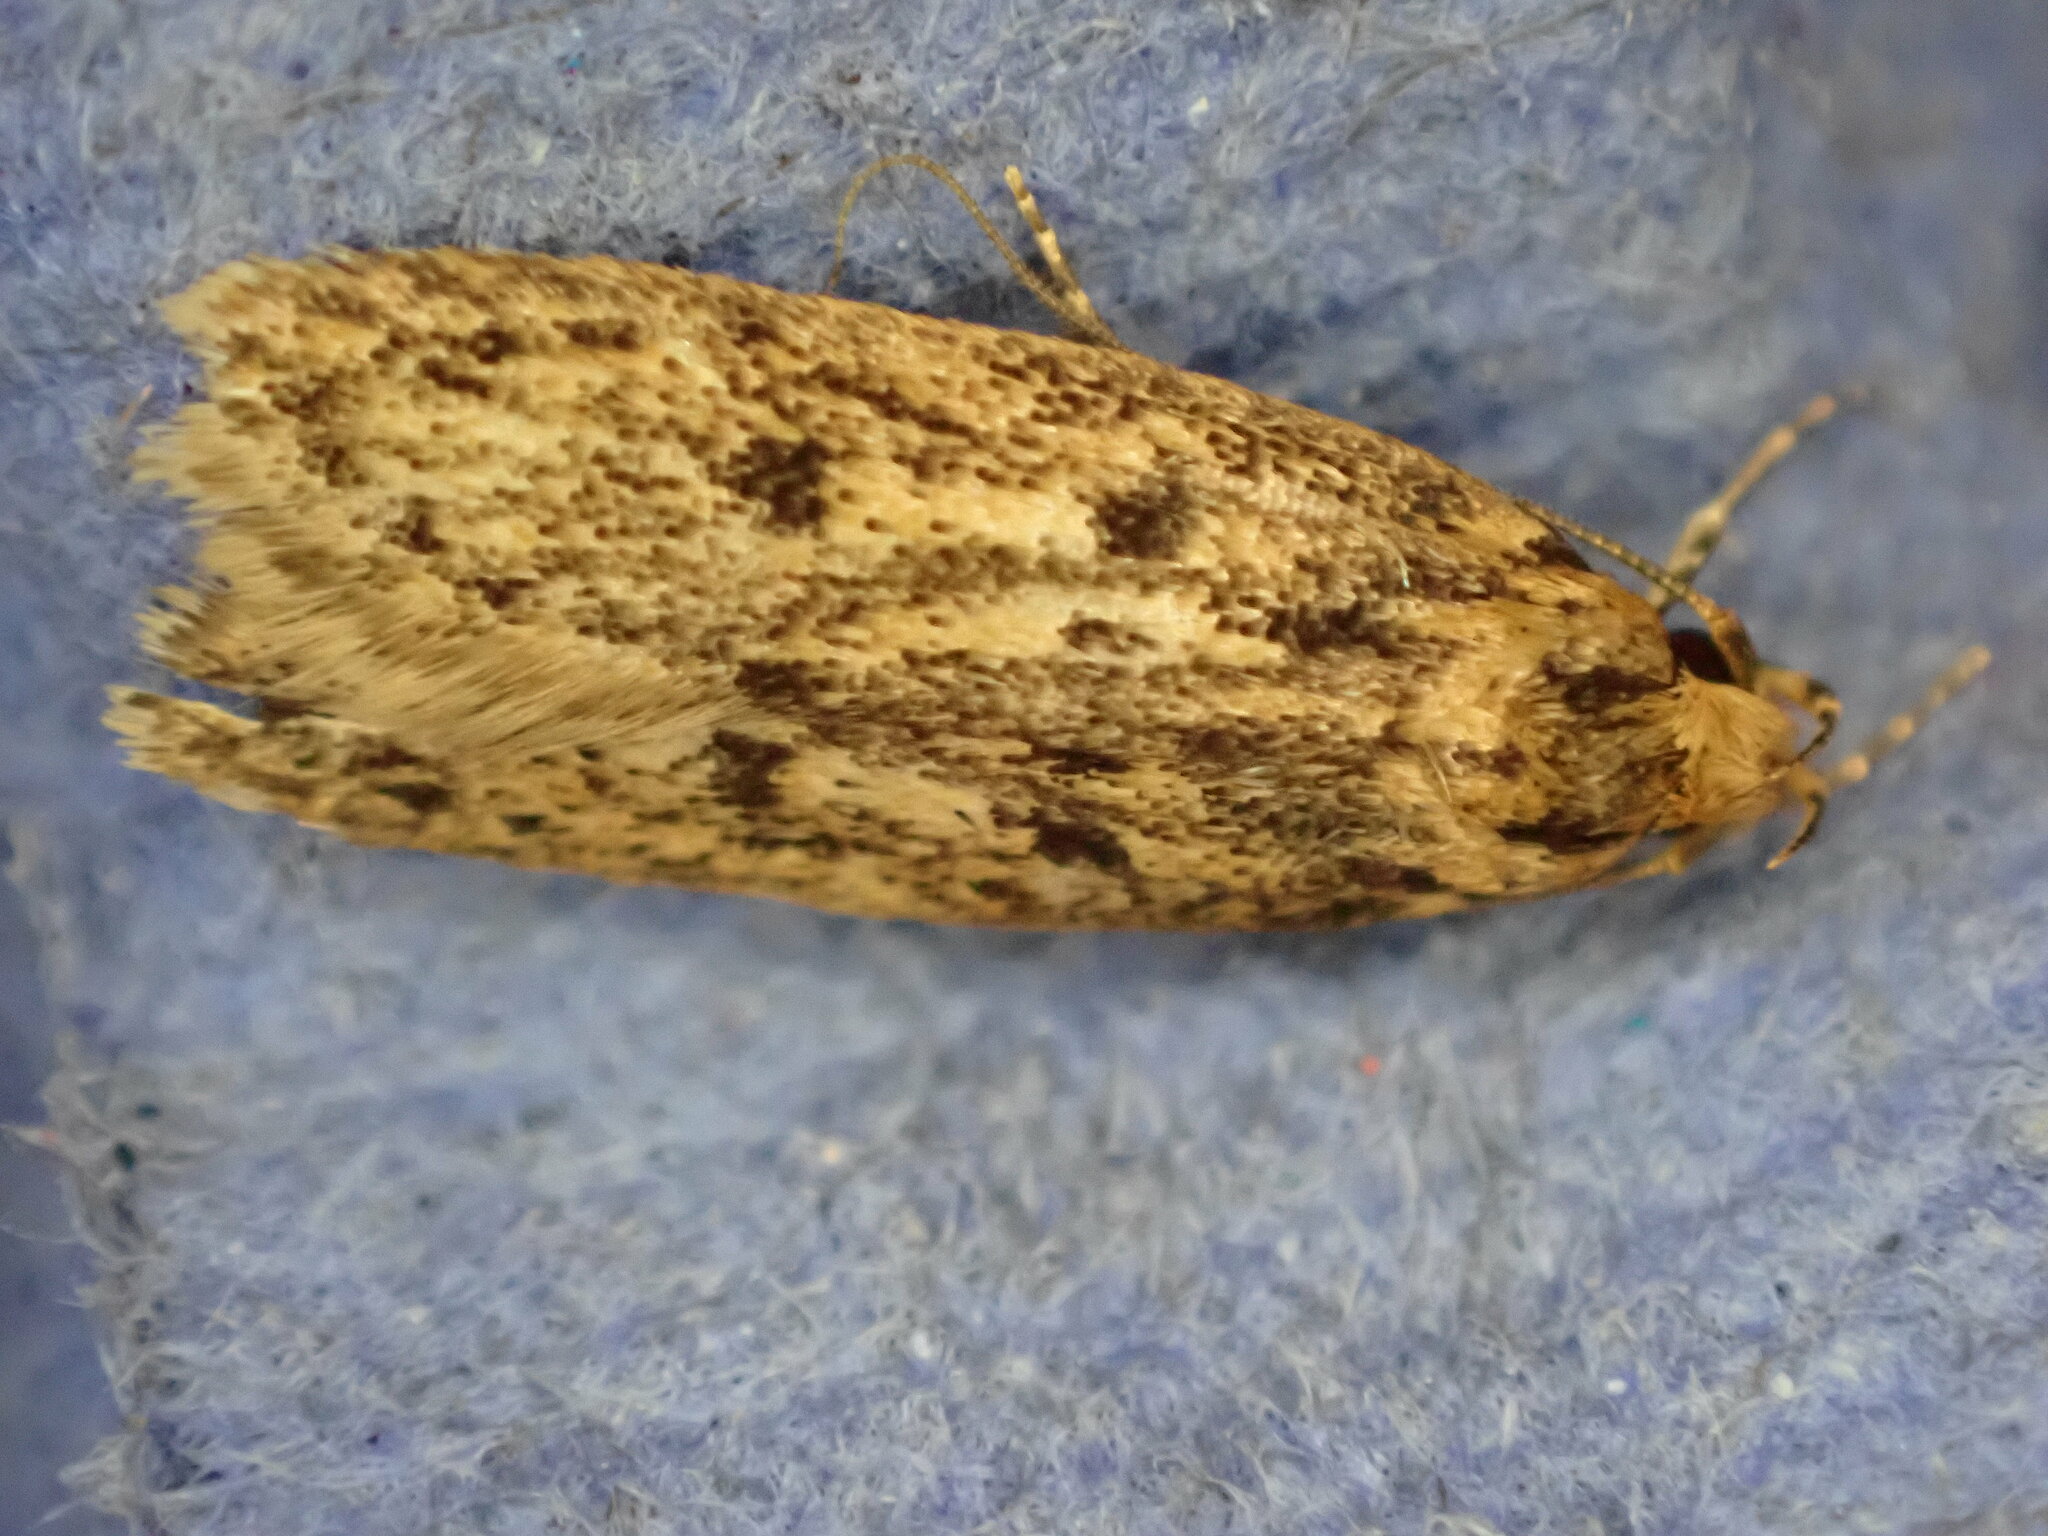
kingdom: Animalia
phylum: Arthropoda
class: Insecta
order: Lepidoptera
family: Oecophoridae
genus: Hofmannophila
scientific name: Hofmannophila pseudospretella
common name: Brown house moth
